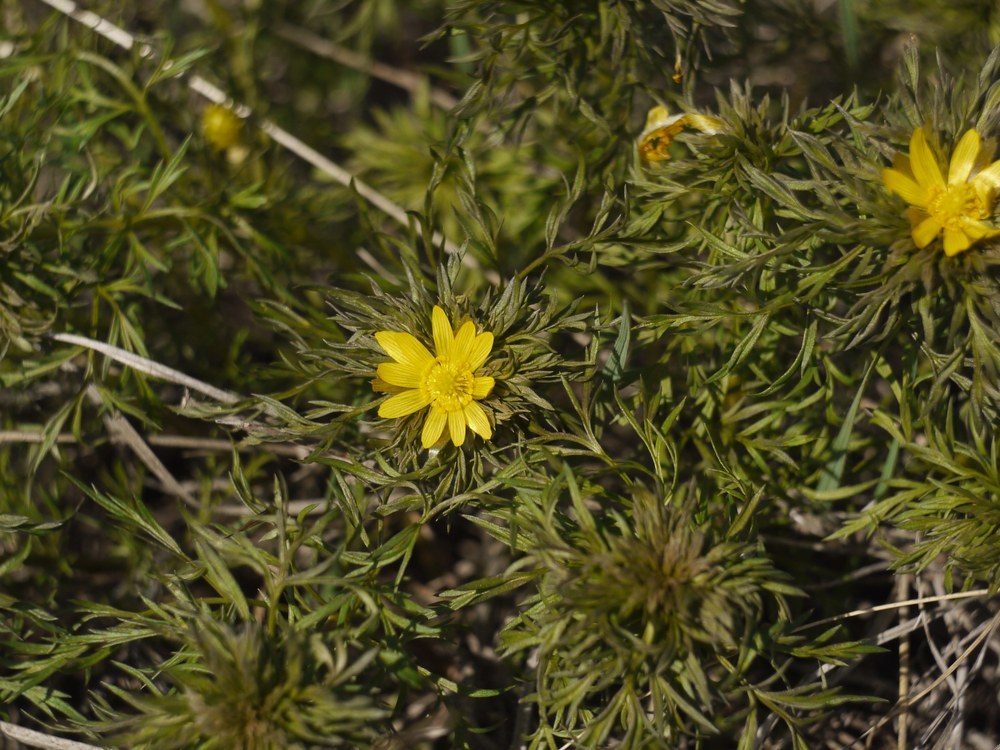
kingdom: Plantae
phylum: Tracheophyta
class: Magnoliopsida
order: Ranunculales
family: Ranunculaceae
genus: Adonis
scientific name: Adonis volgensis
